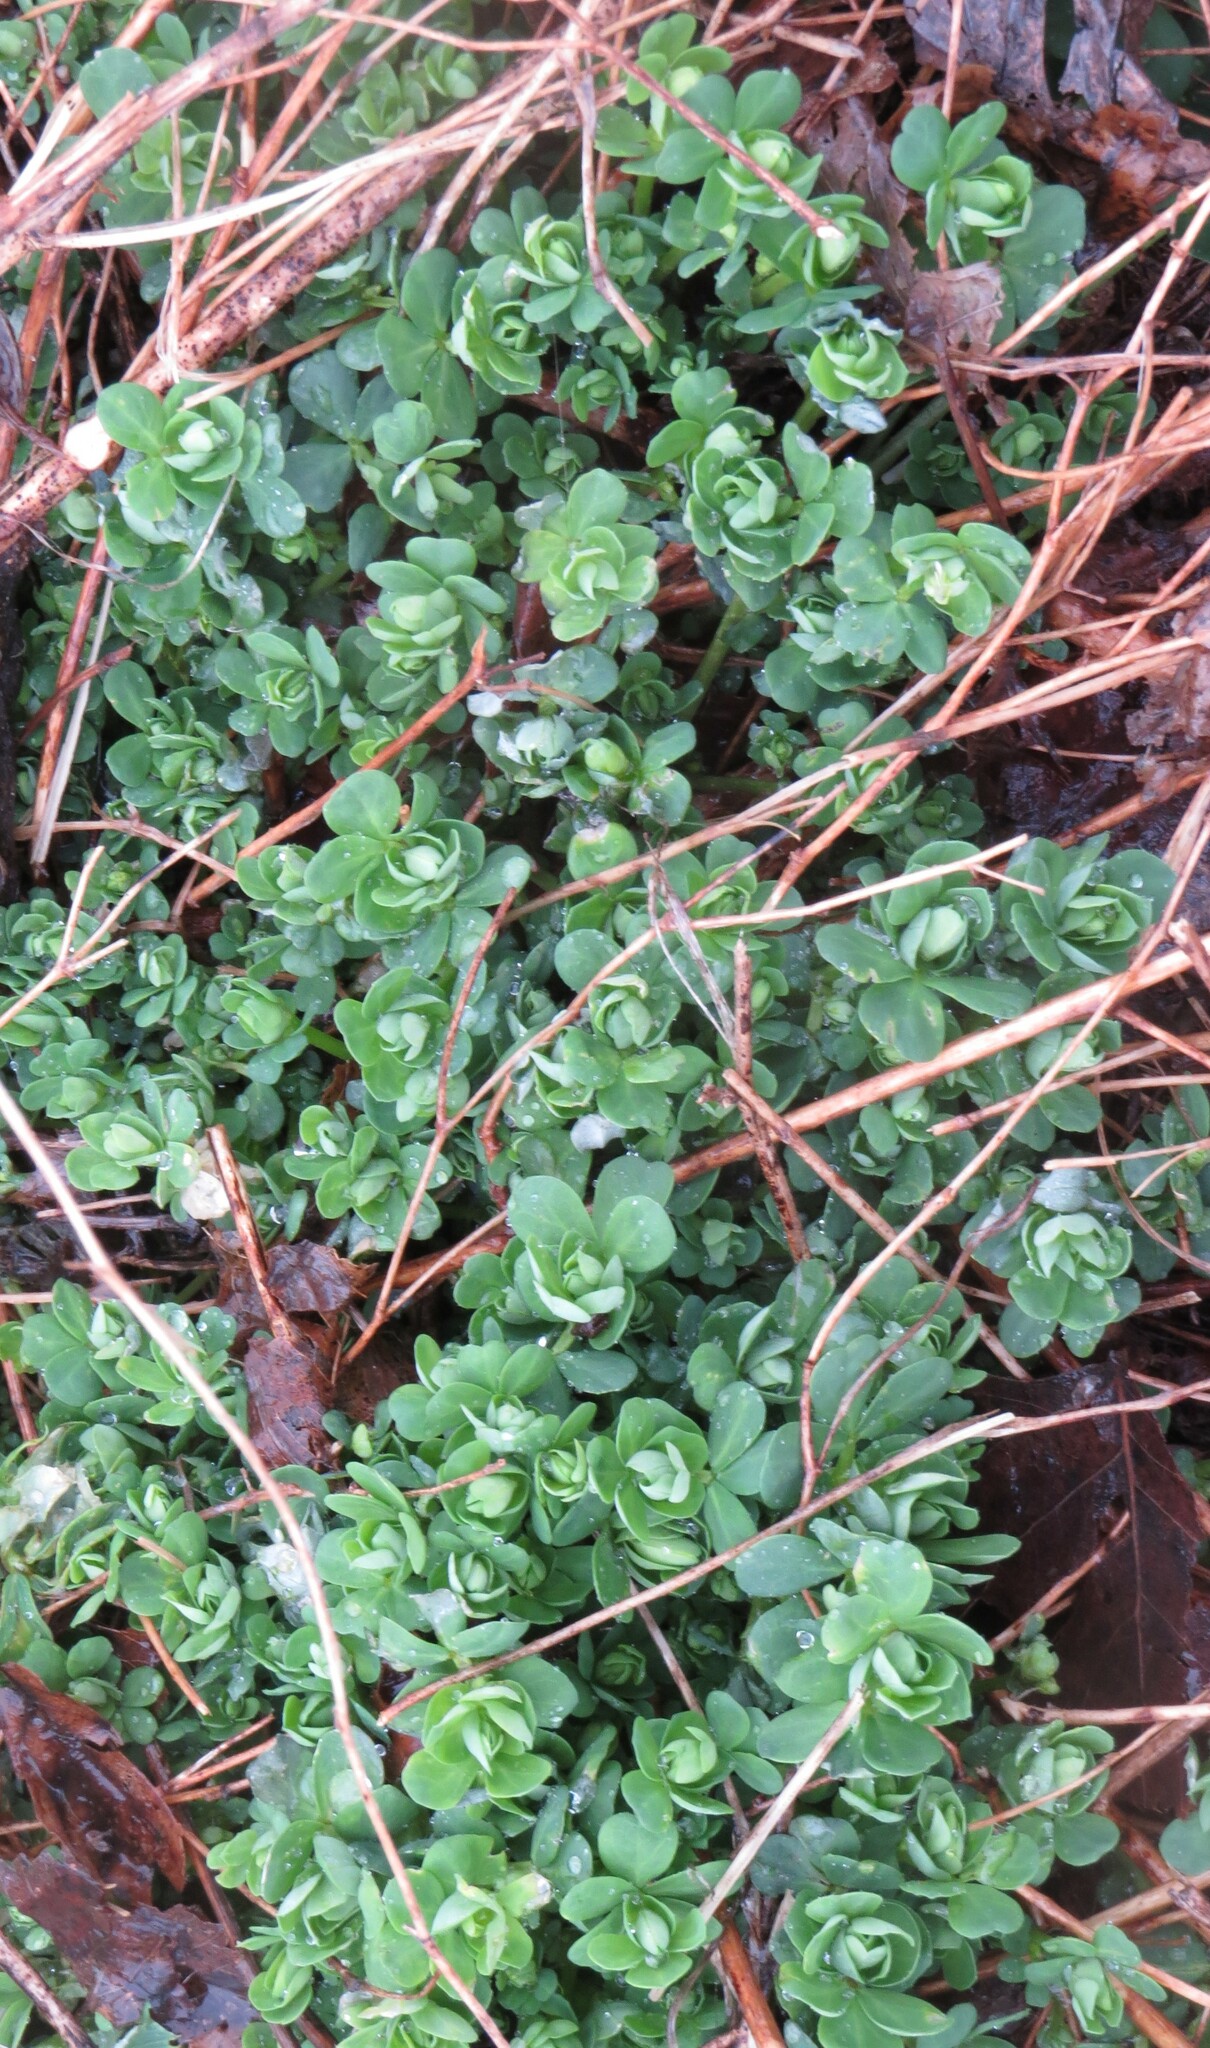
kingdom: Plantae
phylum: Tracheophyta
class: Magnoliopsida
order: Fabales
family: Fabaceae
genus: Lotus
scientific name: Lotus corniculatus
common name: Common bird's-foot-trefoil
